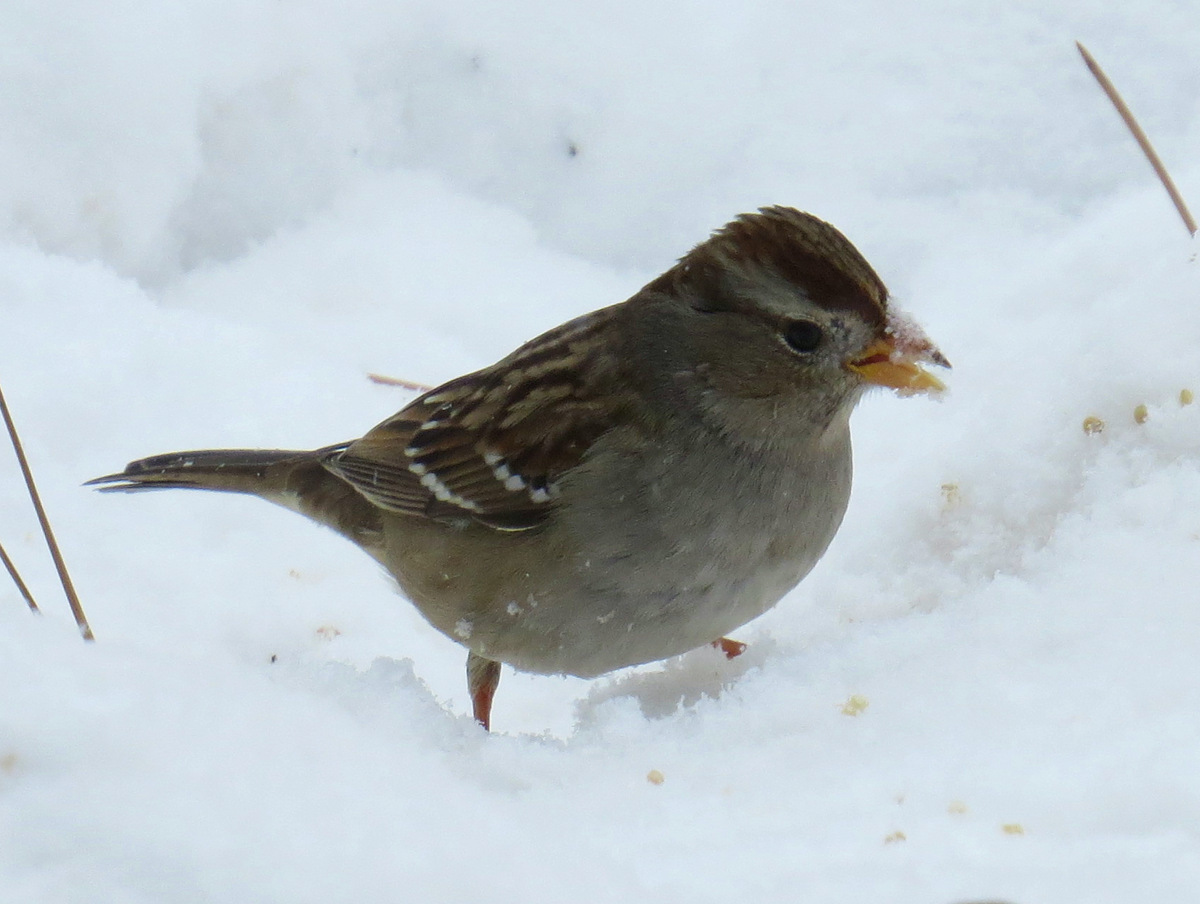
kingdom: Animalia
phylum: Chordata
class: Aves
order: Passeriformes
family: Passerellidae
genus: Zonotrichia
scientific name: Zonotrichia leucophrys
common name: White-crowned sparrow
